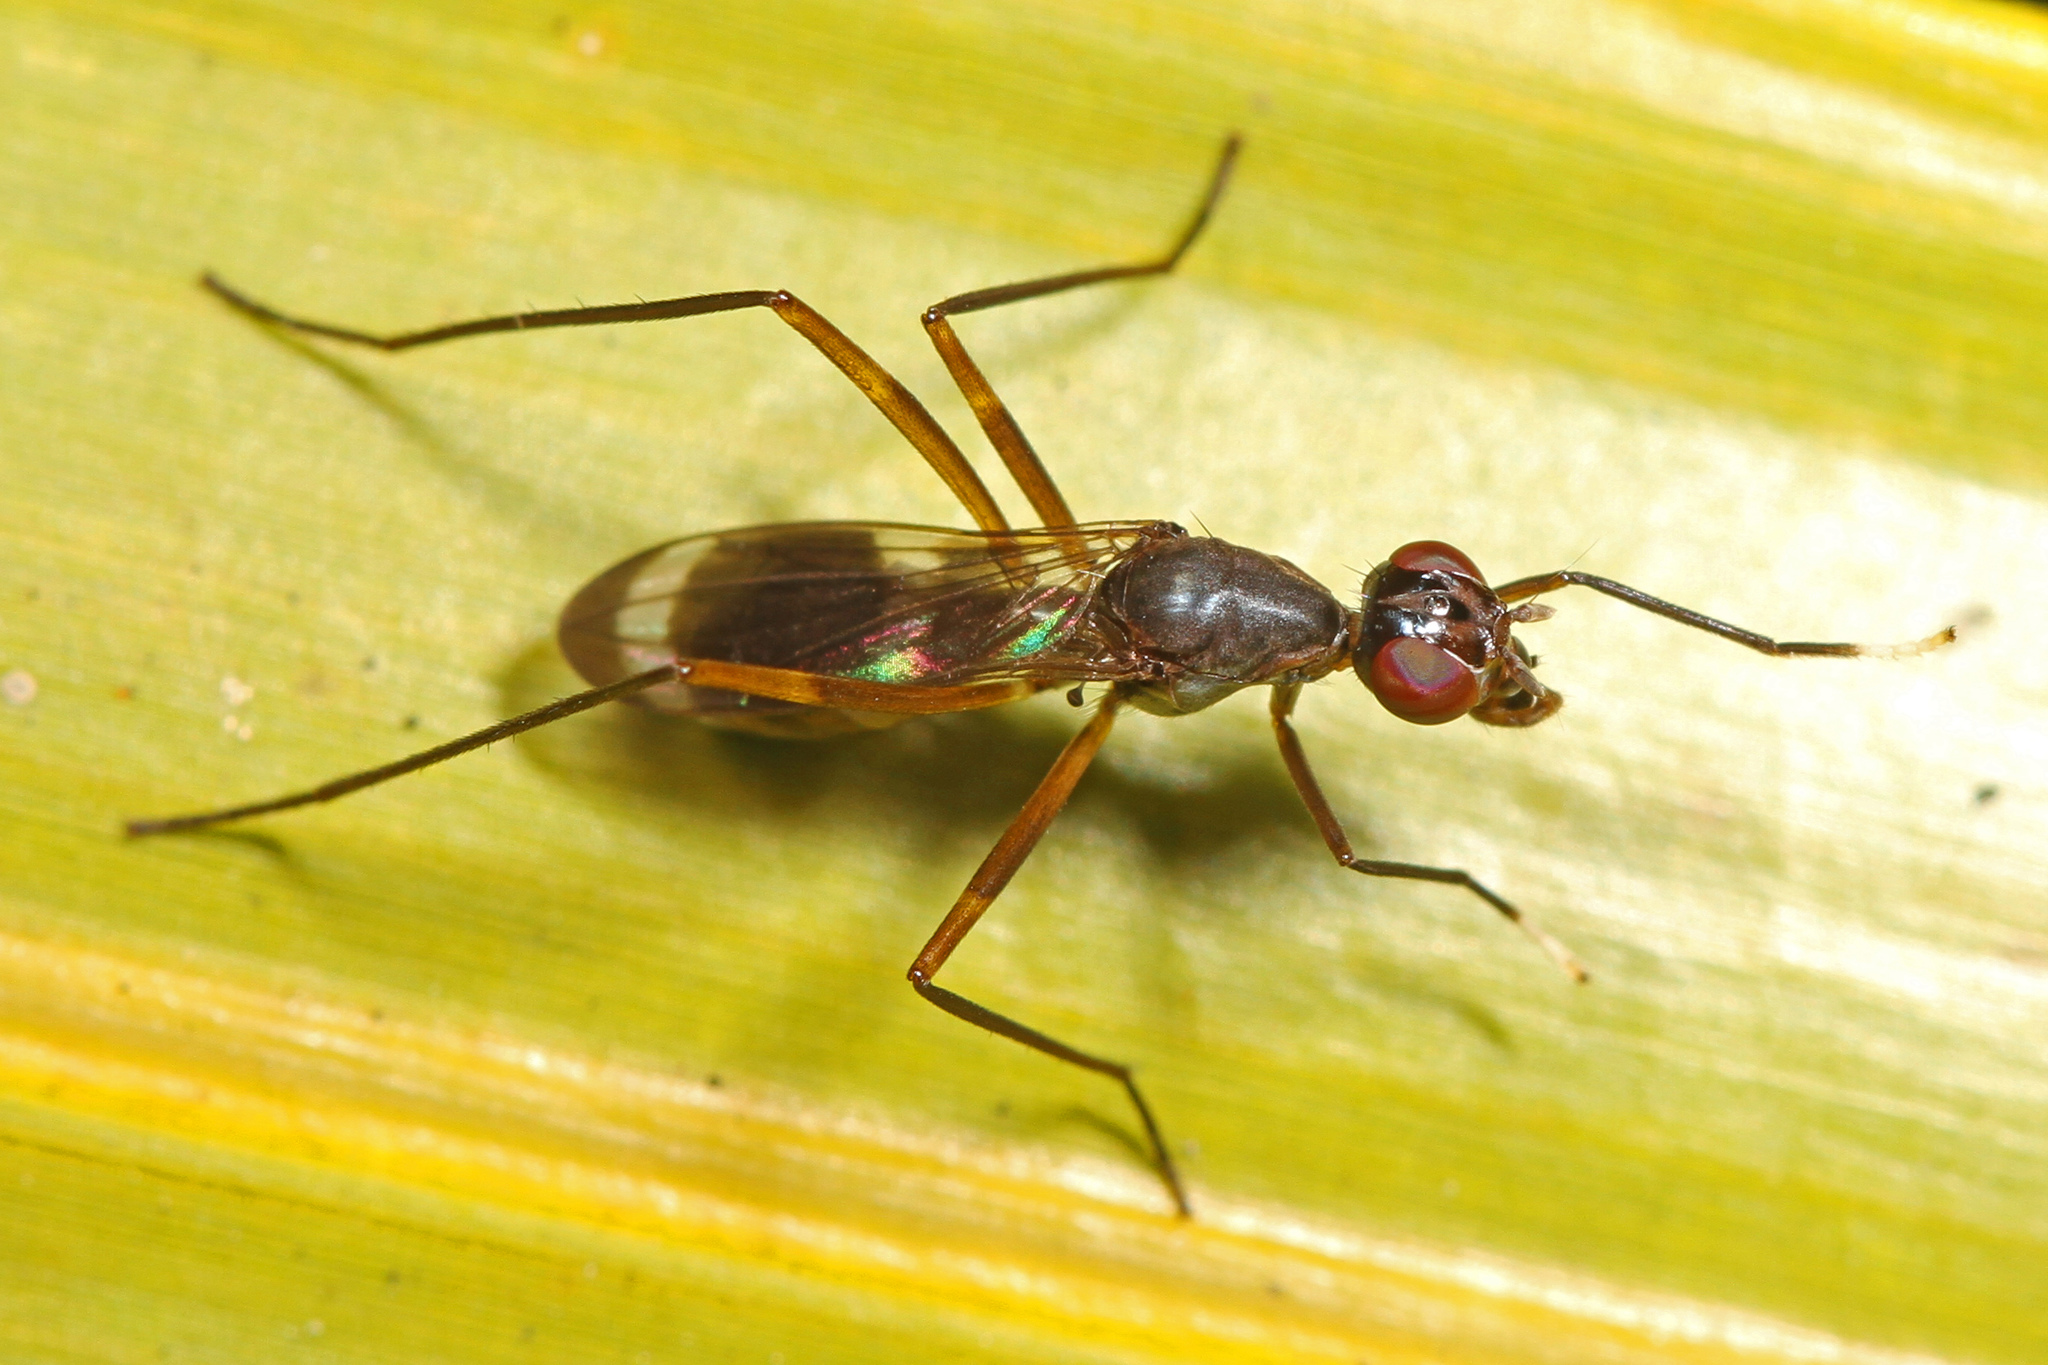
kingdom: Animalia
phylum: Arthropoda
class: Insecta
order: Diptera
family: Micropezidae
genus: Taeniaptera
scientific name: Taeniaptera trivittata
